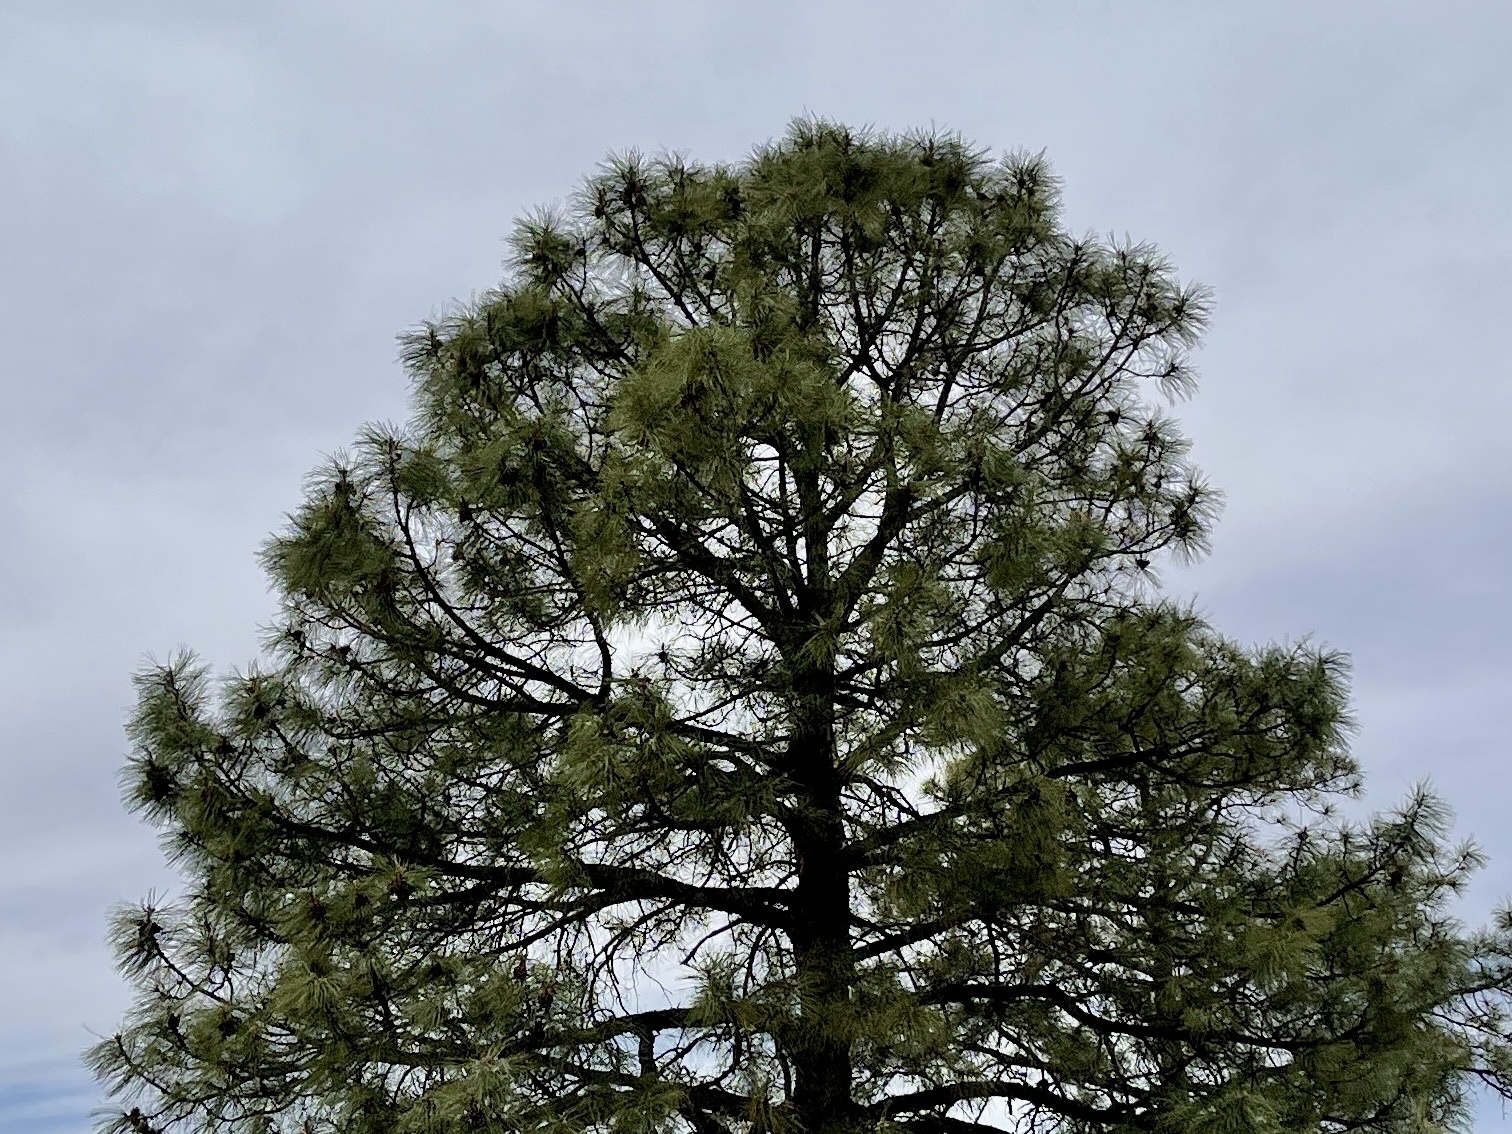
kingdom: Plantae
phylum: Tracheophyta
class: Pinopsida
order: Pinales
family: Pinaceae
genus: Pinus
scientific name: Pinus ponderosa
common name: Western yellow-pine
